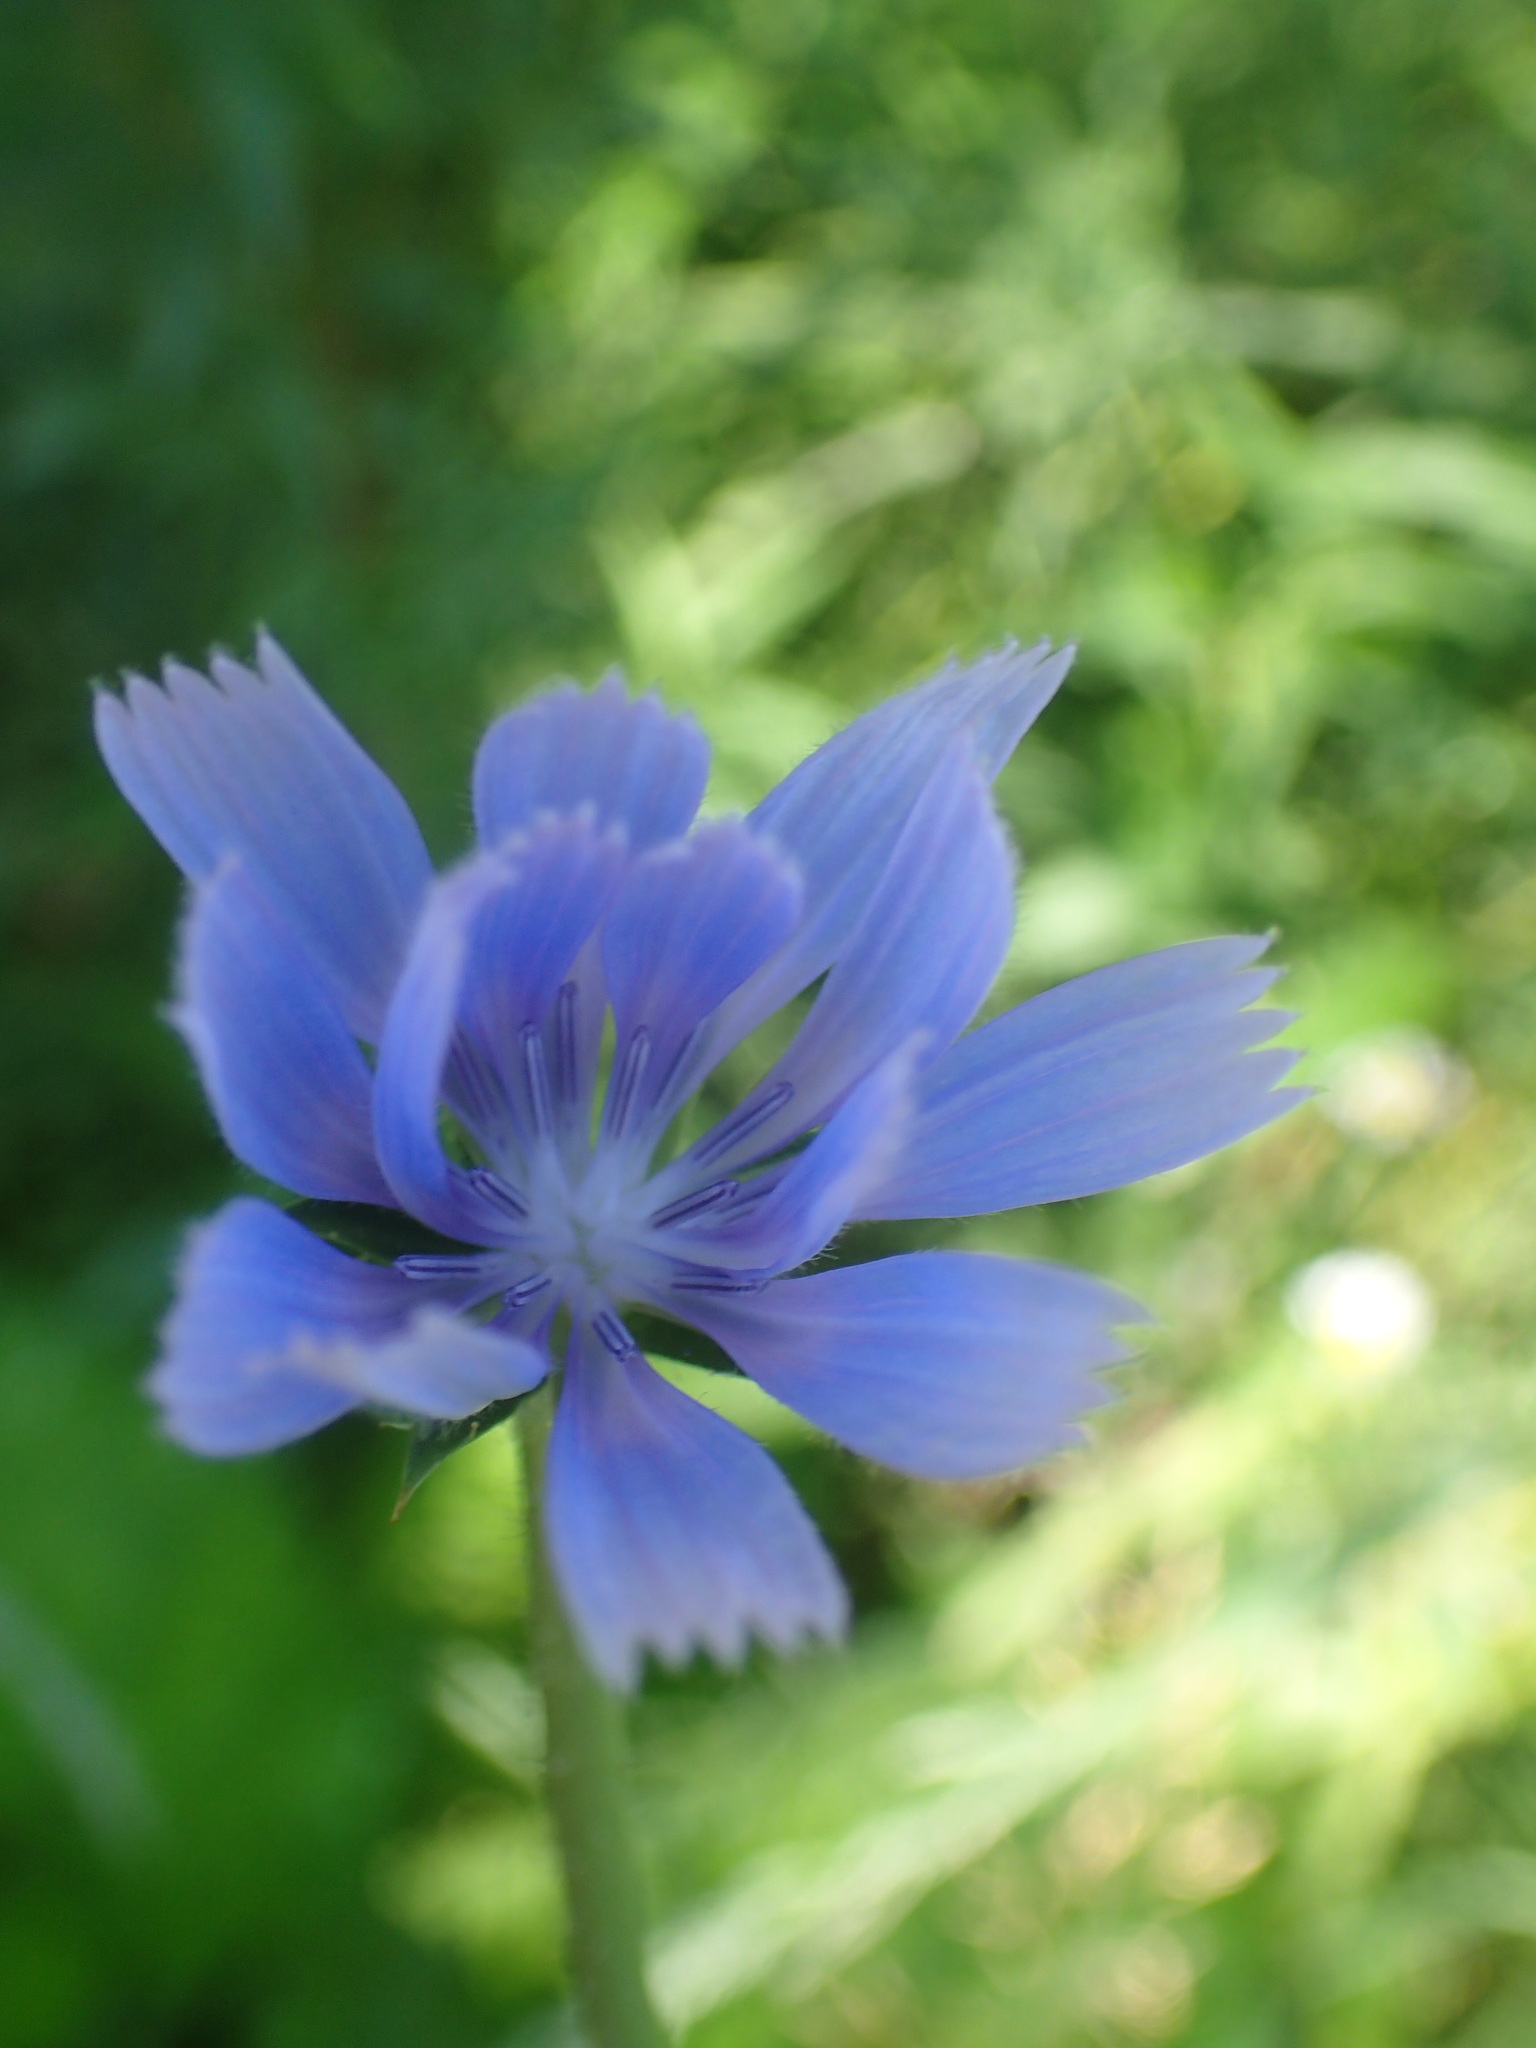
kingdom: Plantae
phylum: Tracheophyta
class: Magnoliopsida
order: Asterales
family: Asteraceae
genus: Cichorium
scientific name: Cichorium intybus
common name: Chicory
